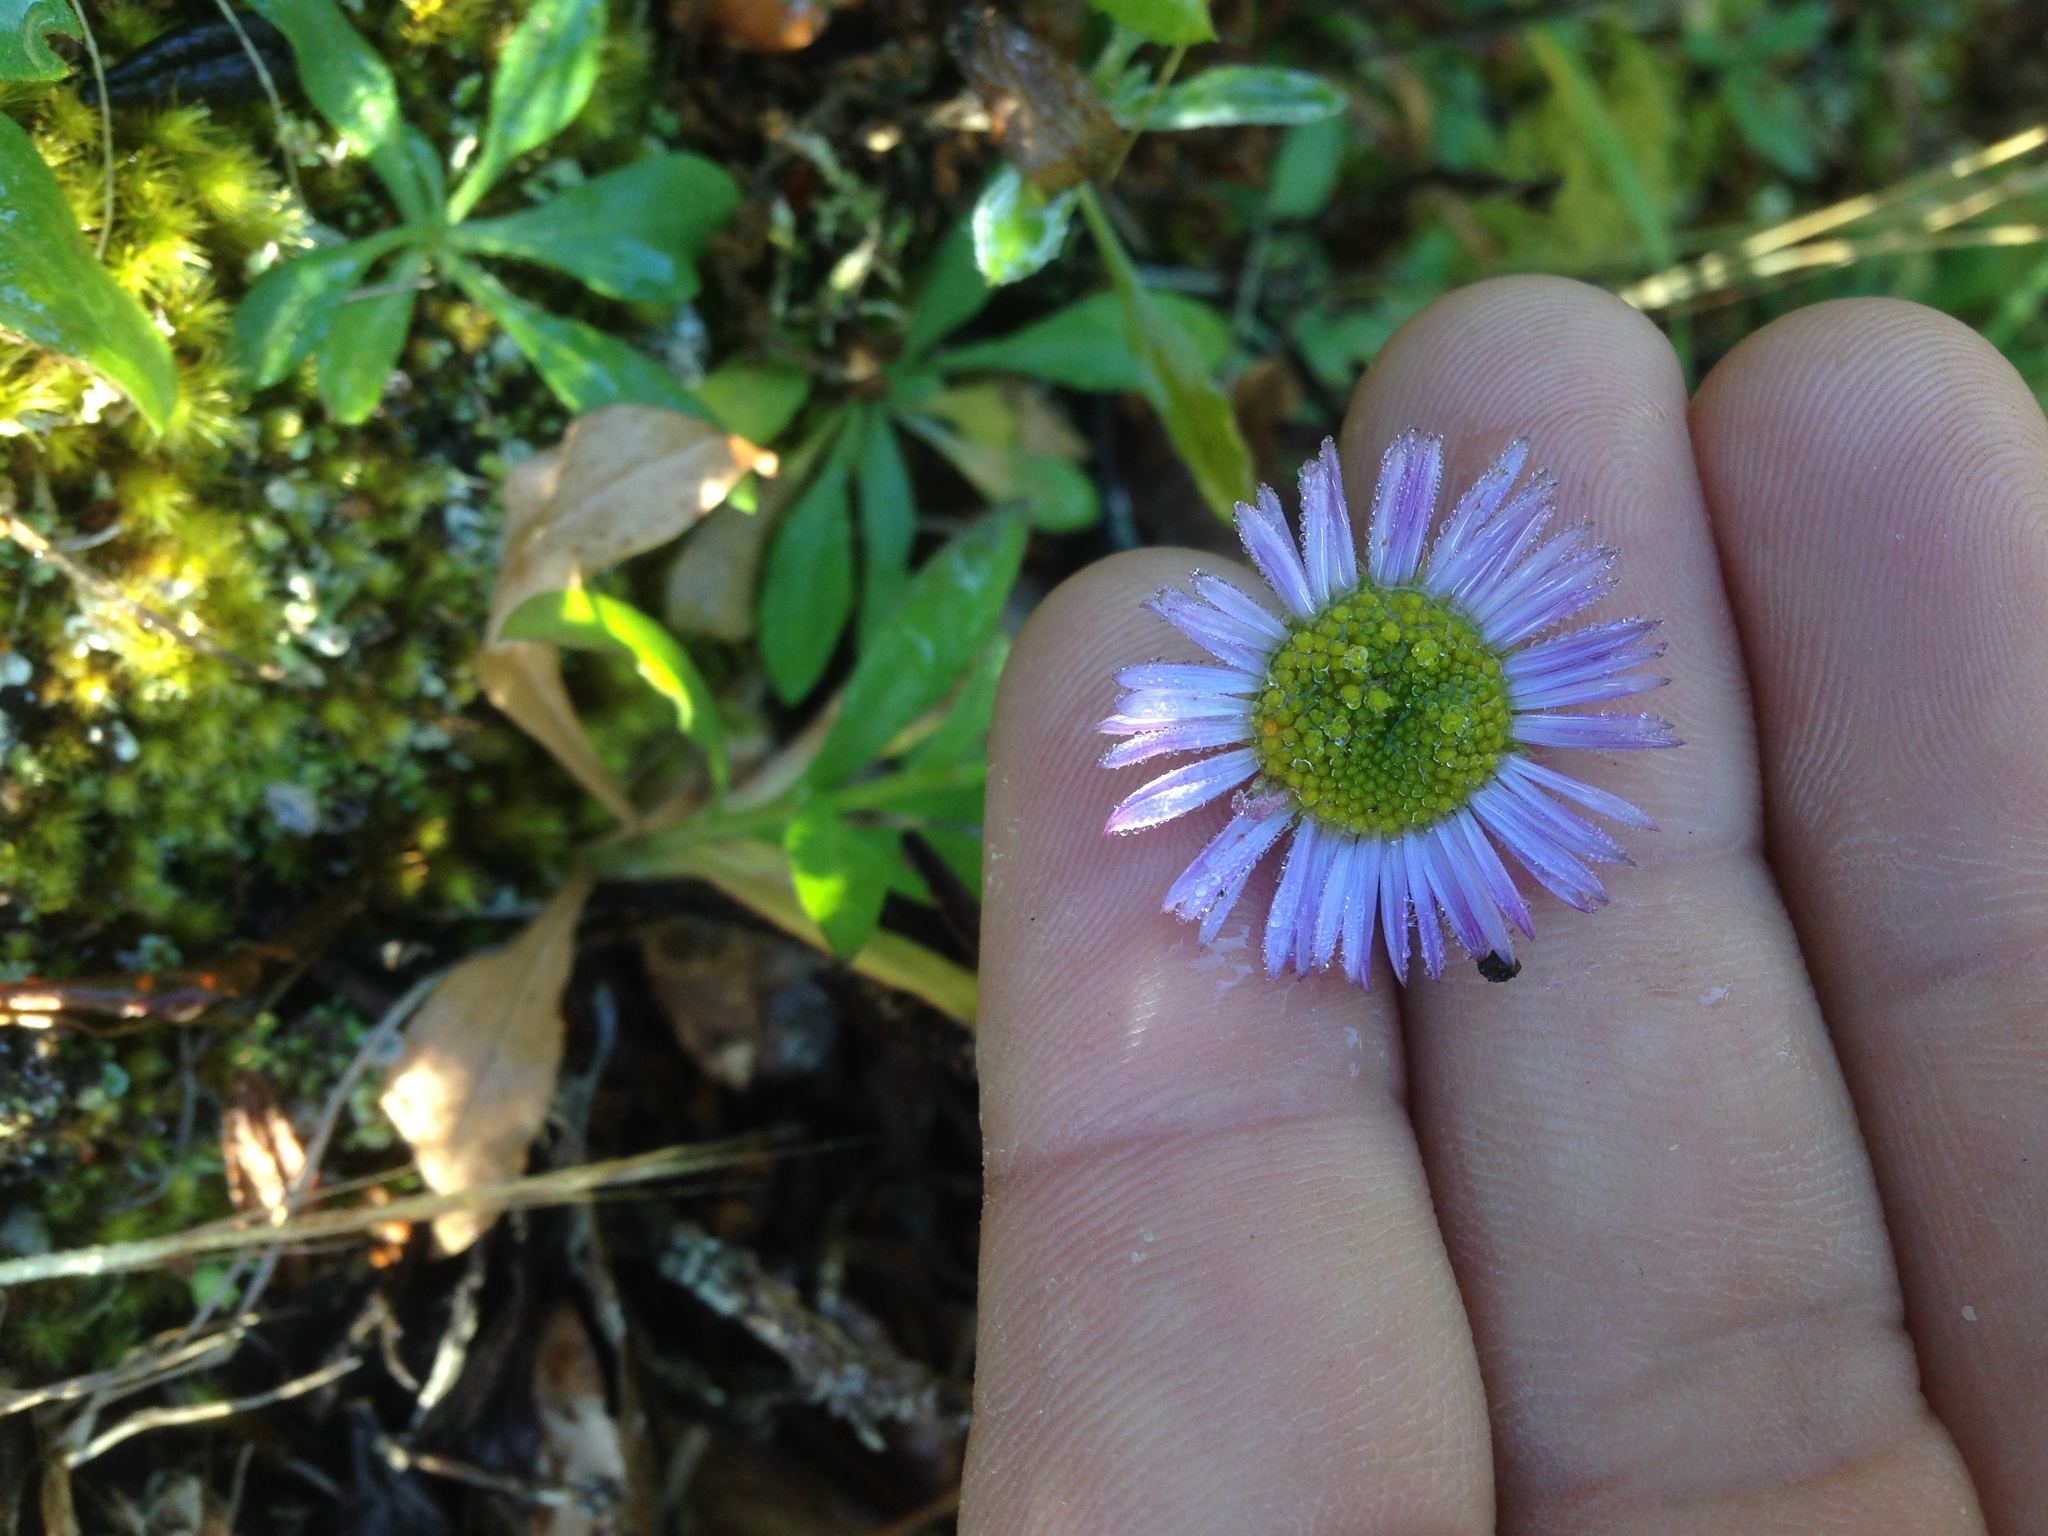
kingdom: Plantae
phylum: Tracheophyta
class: Magnoliopsida
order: Asterales
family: Asteraceae
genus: Erigeron
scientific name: Erigeron glaucus
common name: Seaside daisy
